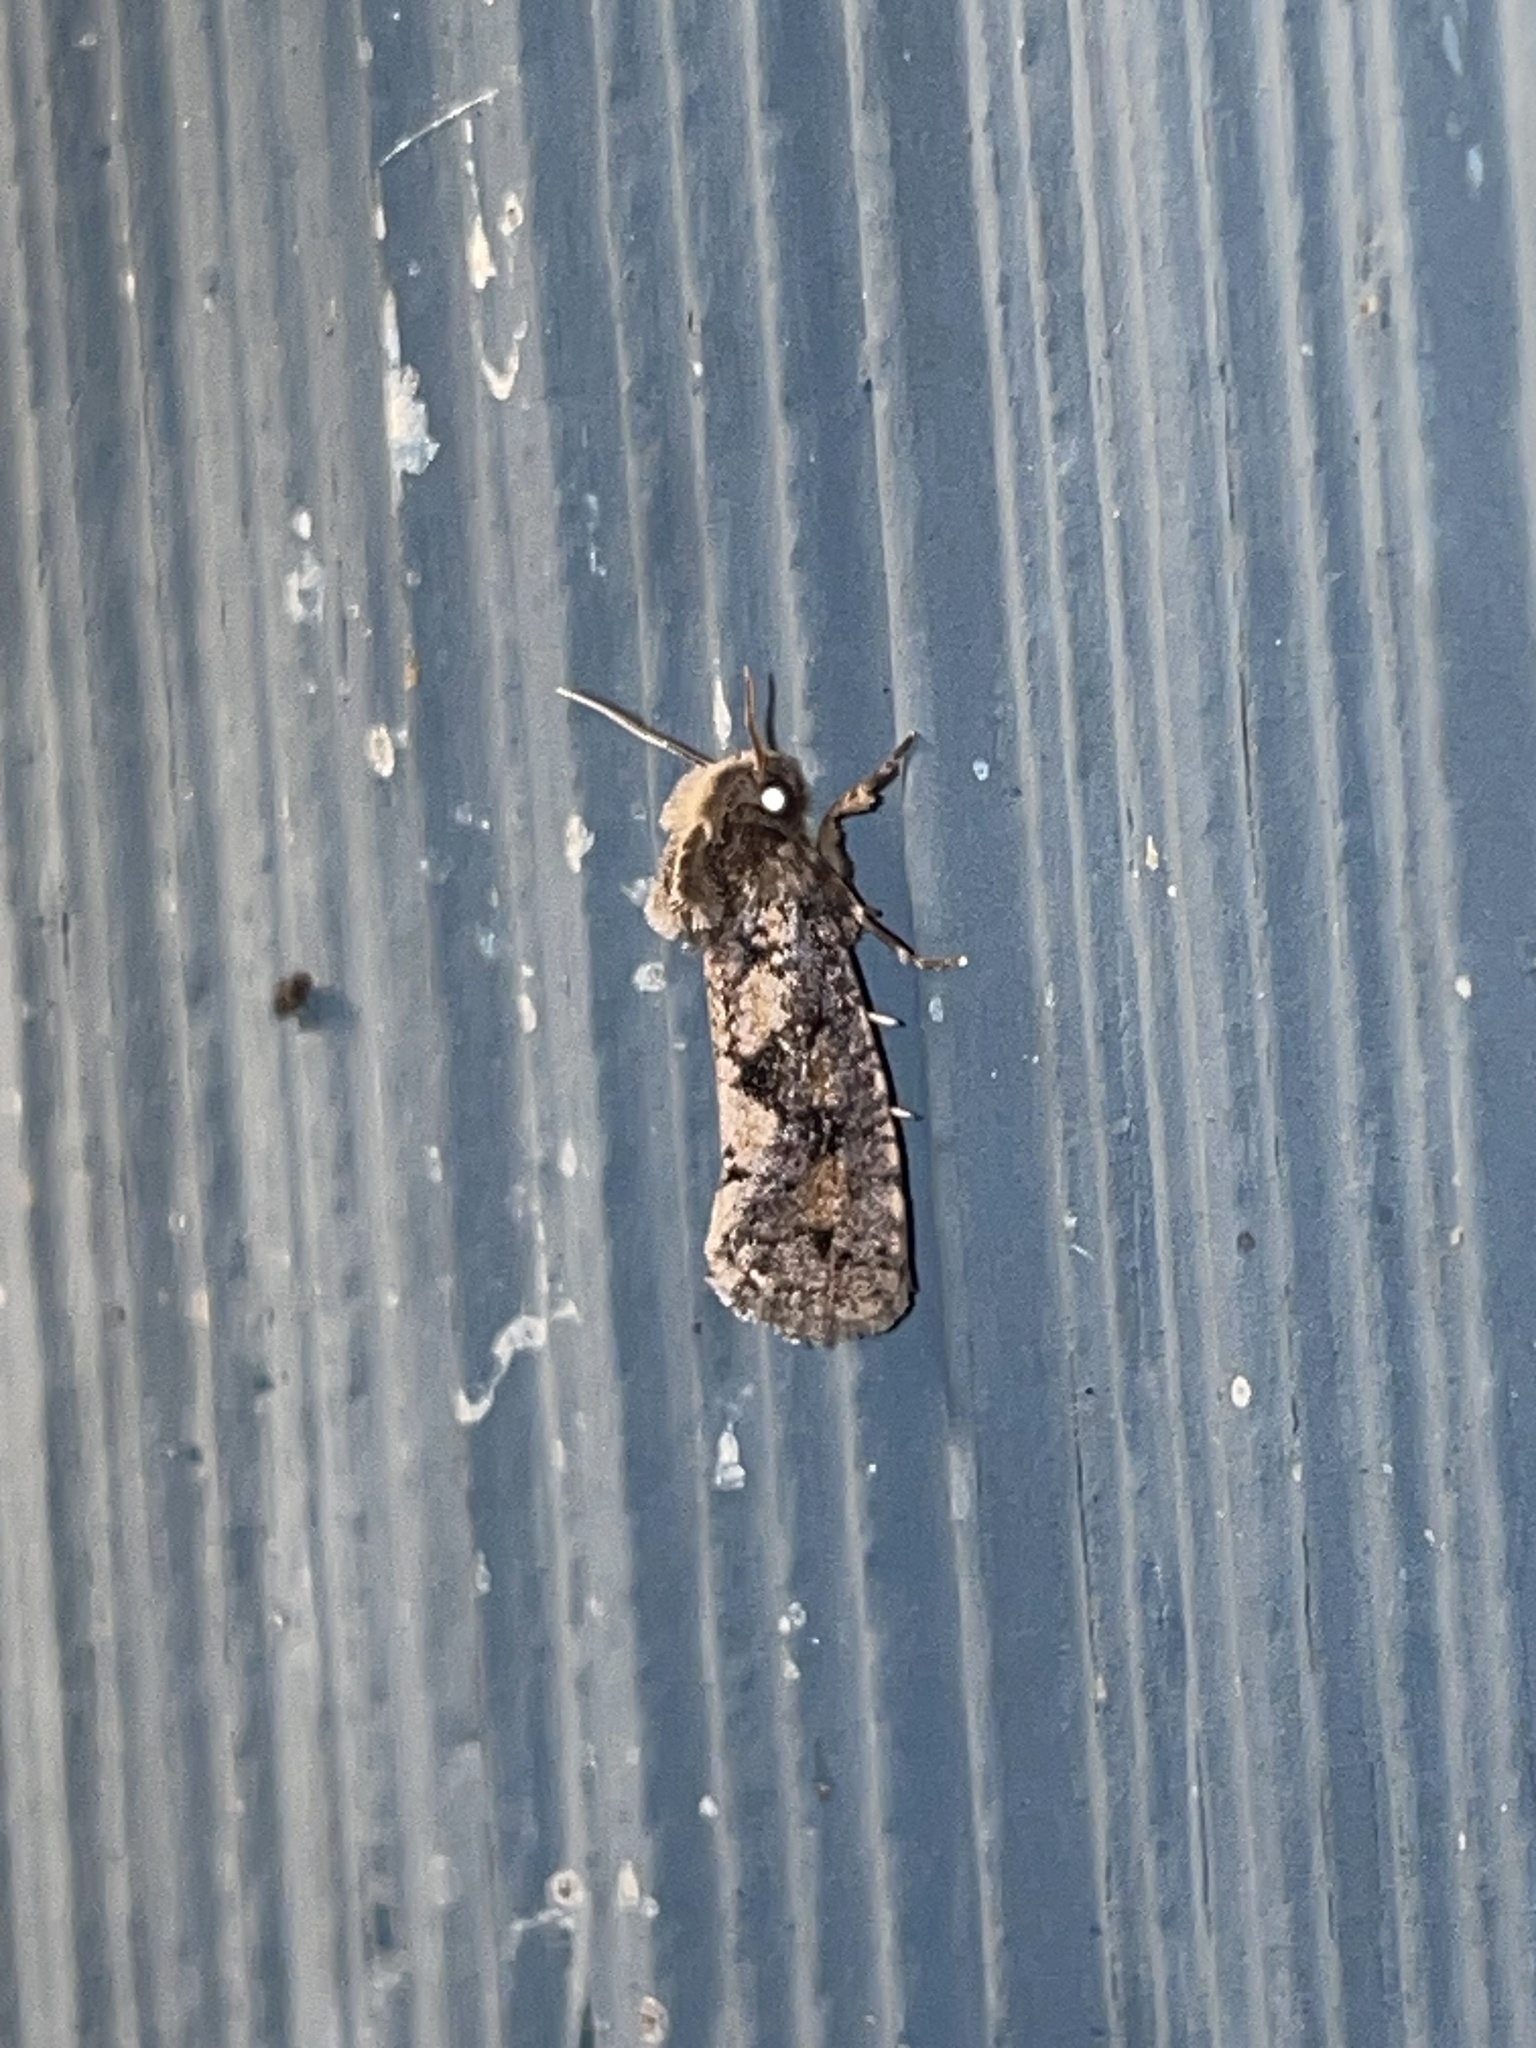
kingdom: Animalia
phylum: Arthropoda
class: Insecta
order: Lepidoptera
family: Tineidae
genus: Acrolophus
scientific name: Acrolophus popeanella
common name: Clemens' grass tubeworm moth
